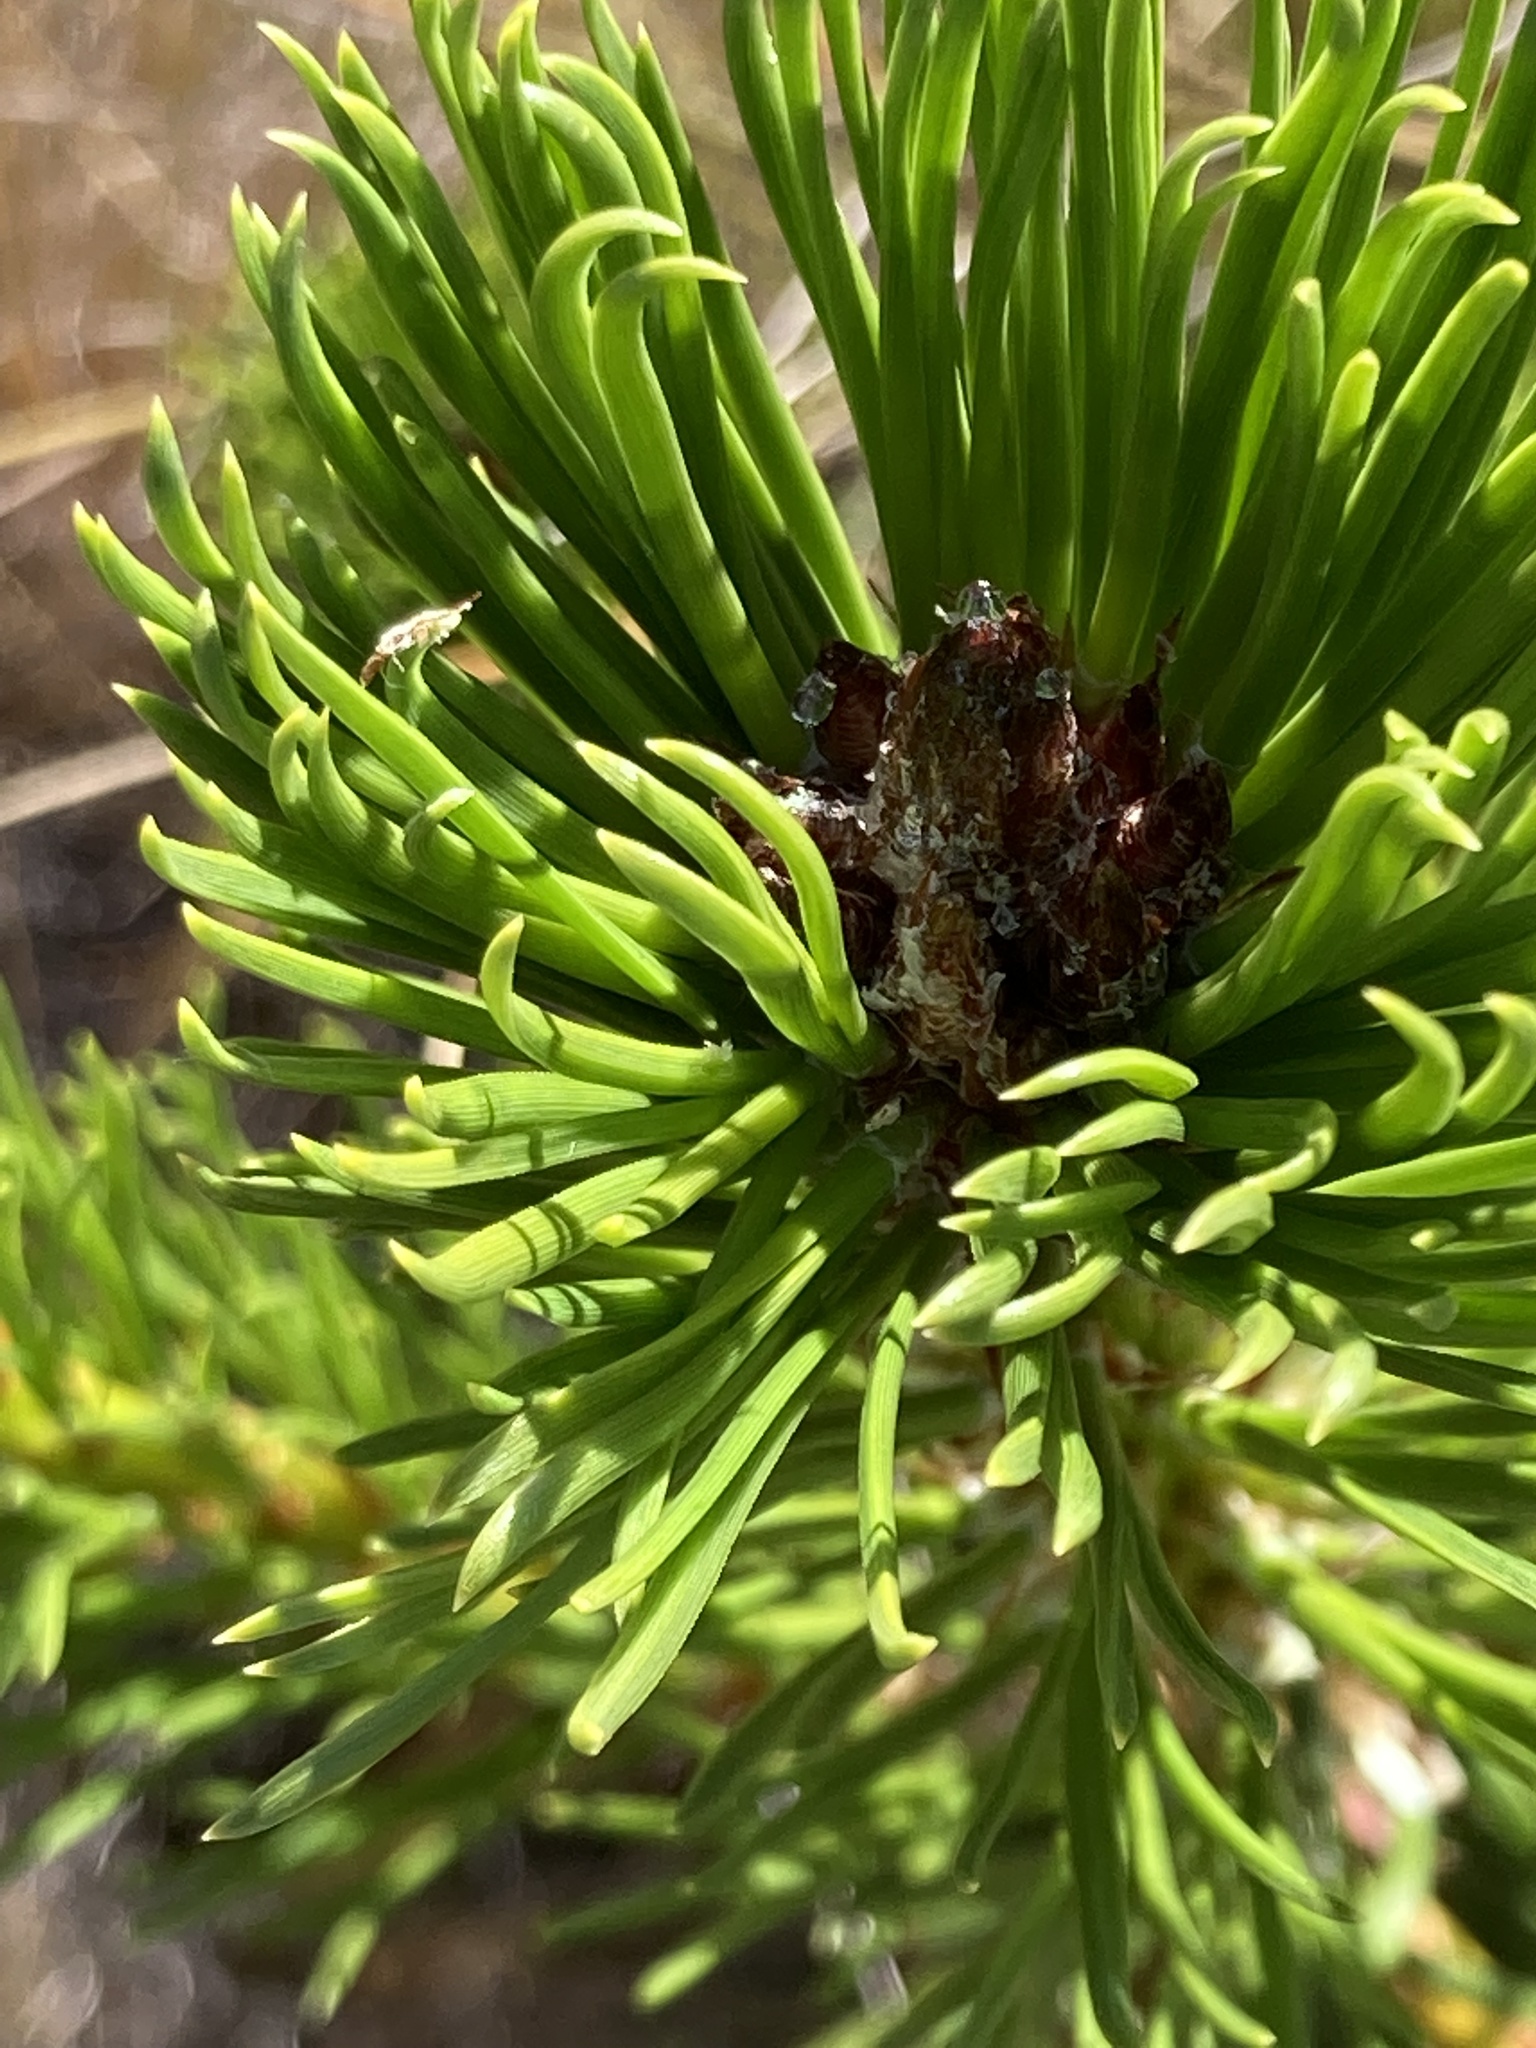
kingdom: Plantae
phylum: Tracheophyta
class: Pinopsida
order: Pinales
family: Pinaceae
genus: Pinus
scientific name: Pinus contorta
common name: Lodgepole pine
